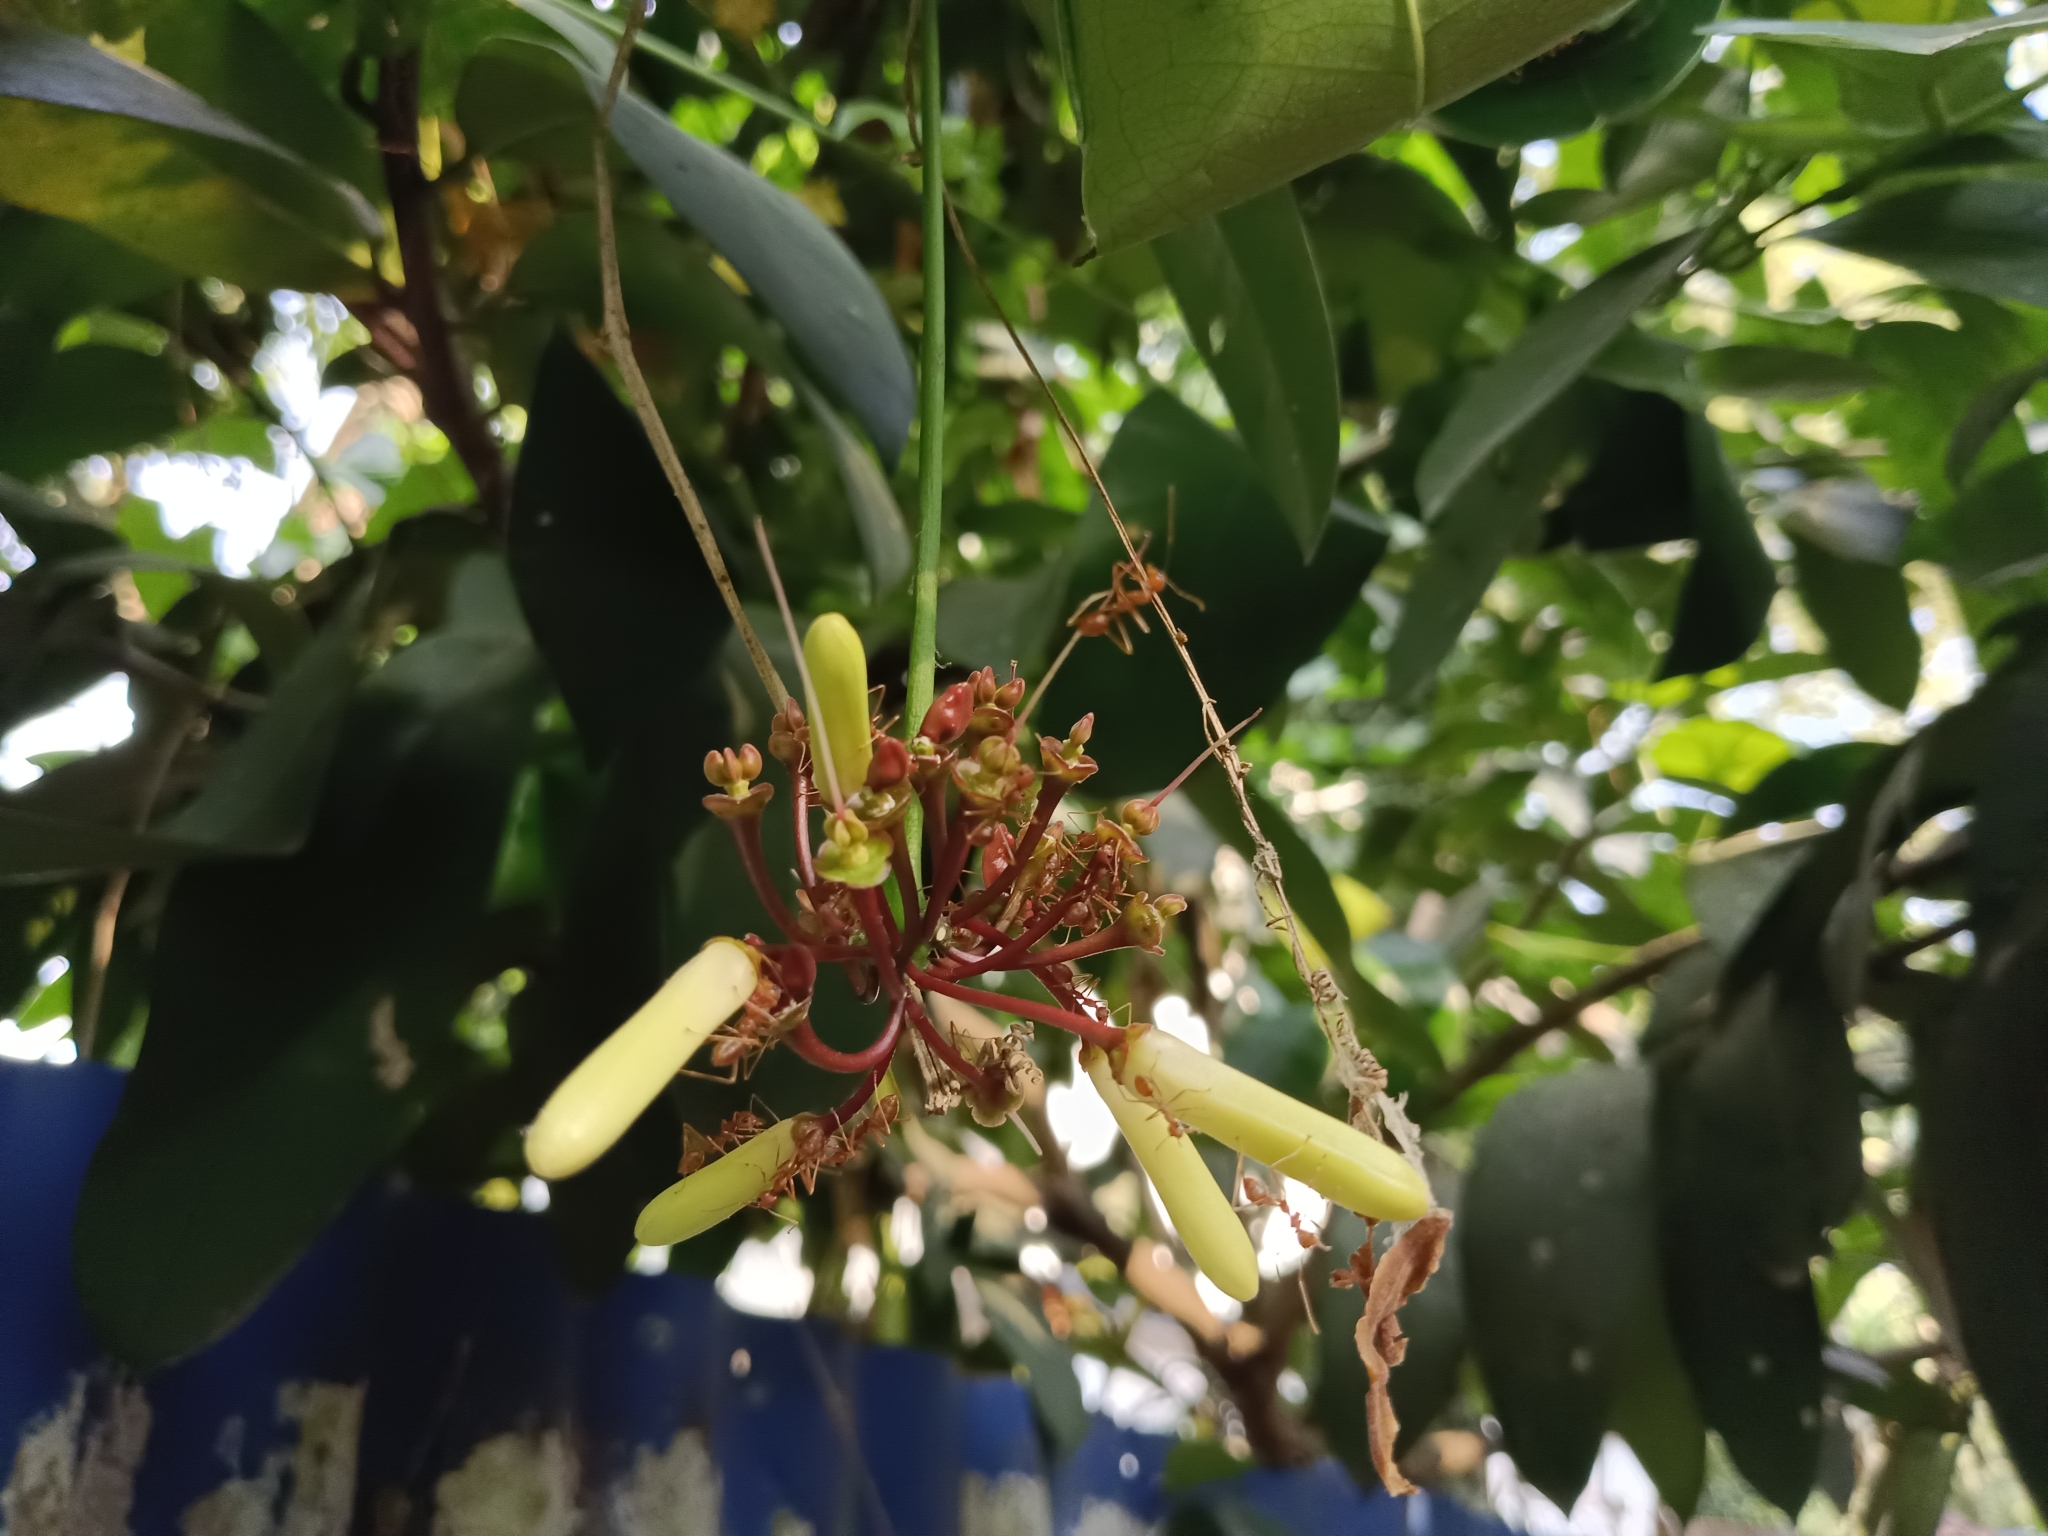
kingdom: Plantae
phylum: Tracheophyta
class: Magnoliopsida
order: Sapindales
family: Simaroubaceae
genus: Samadera
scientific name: Samadera indica
